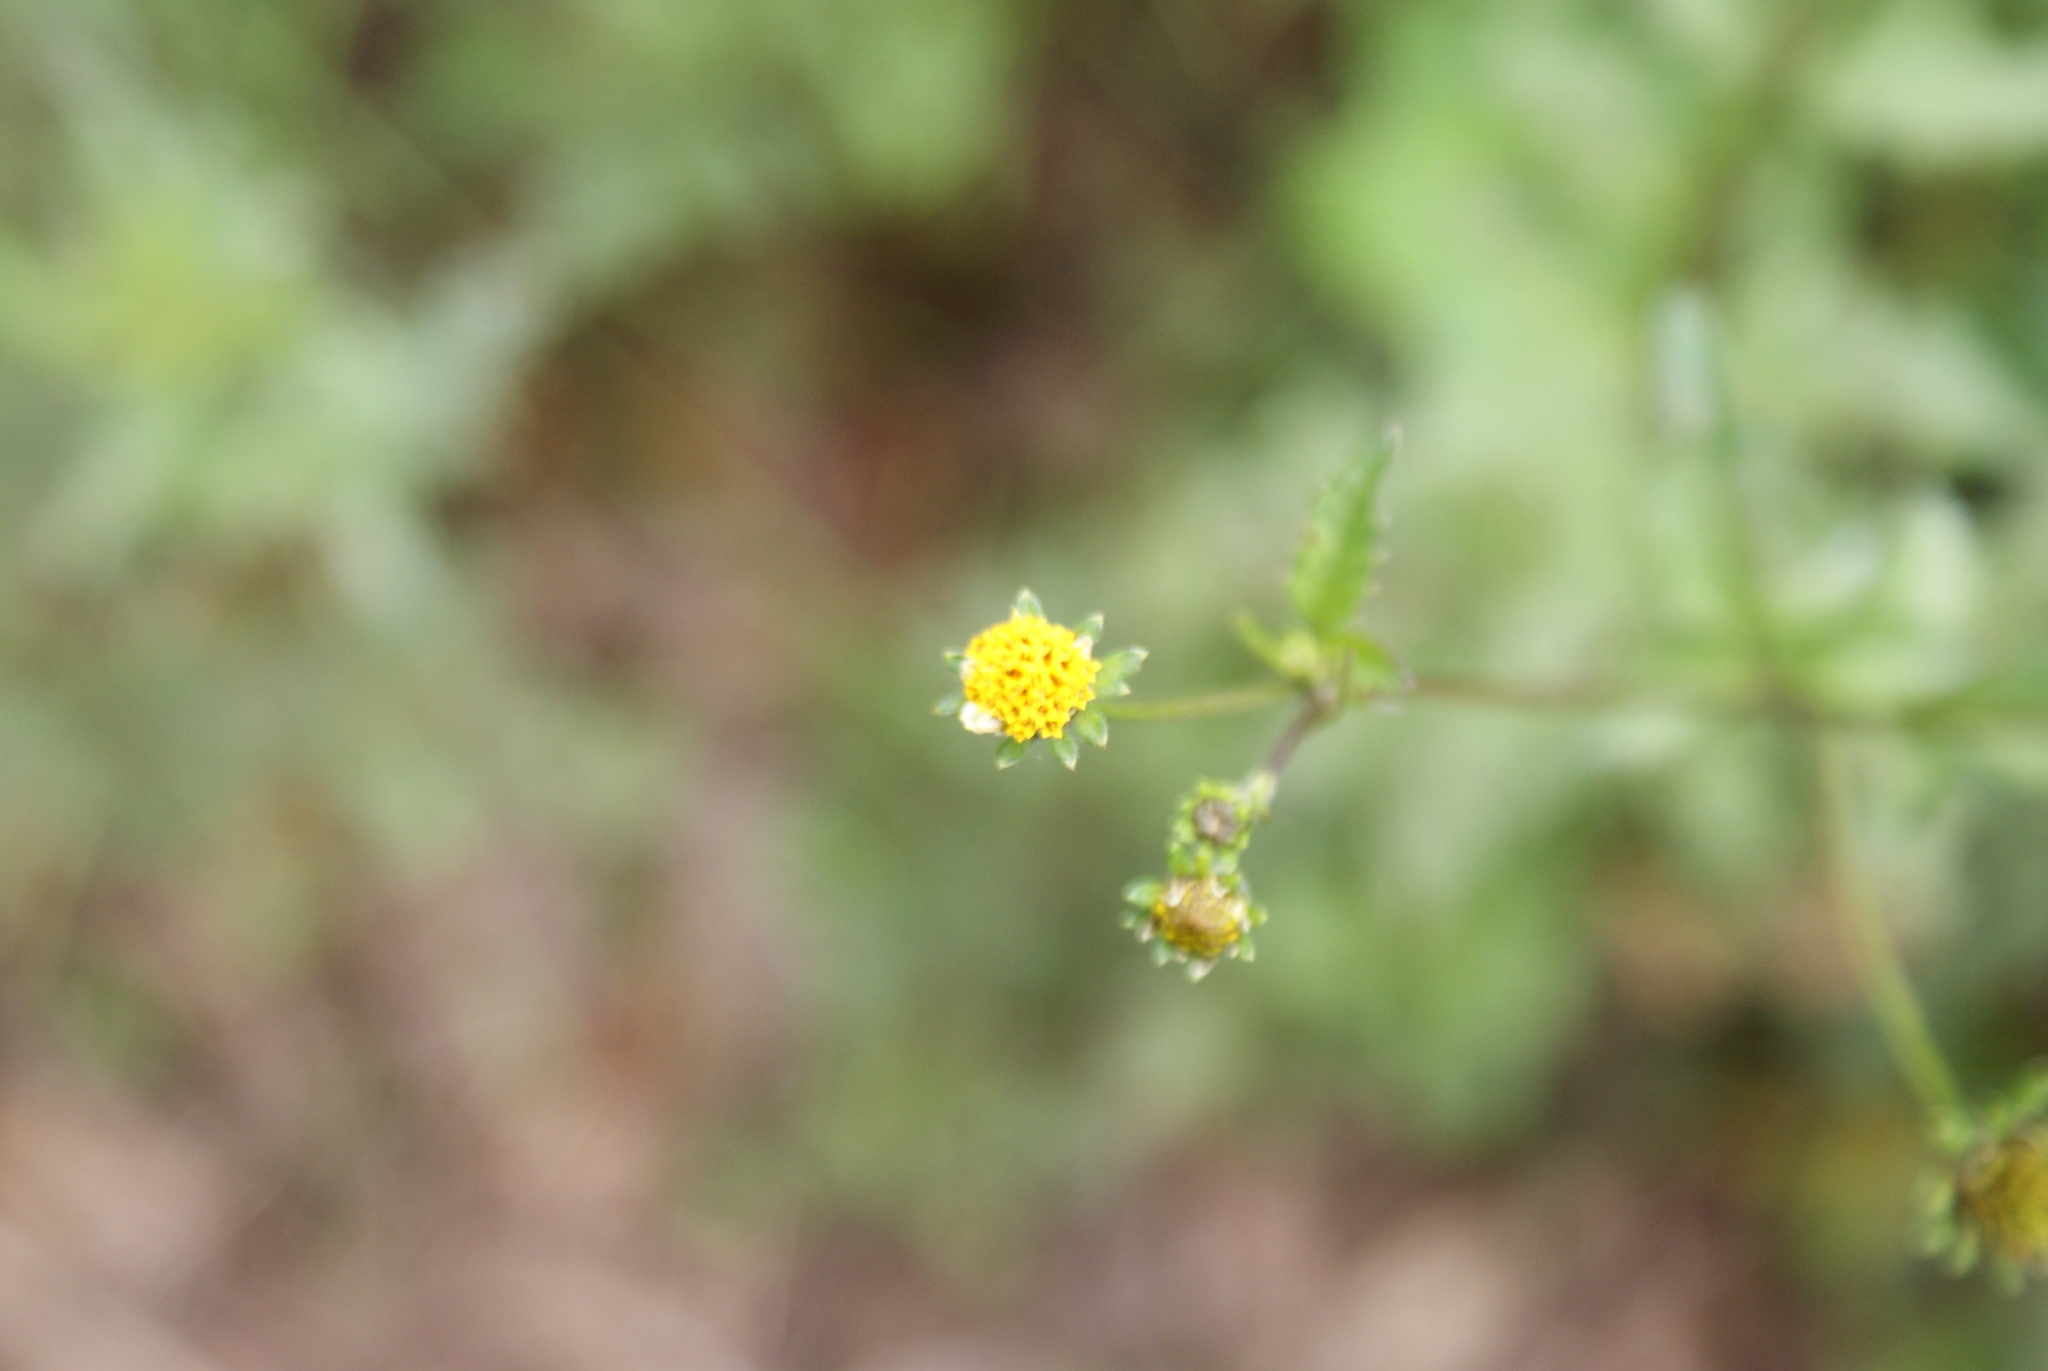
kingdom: Plantae
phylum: Tracheophyta
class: Magnoliopsida
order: Asterales
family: Asteraceae
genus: Bidens
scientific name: Bidens pilosa
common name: Black-jack
